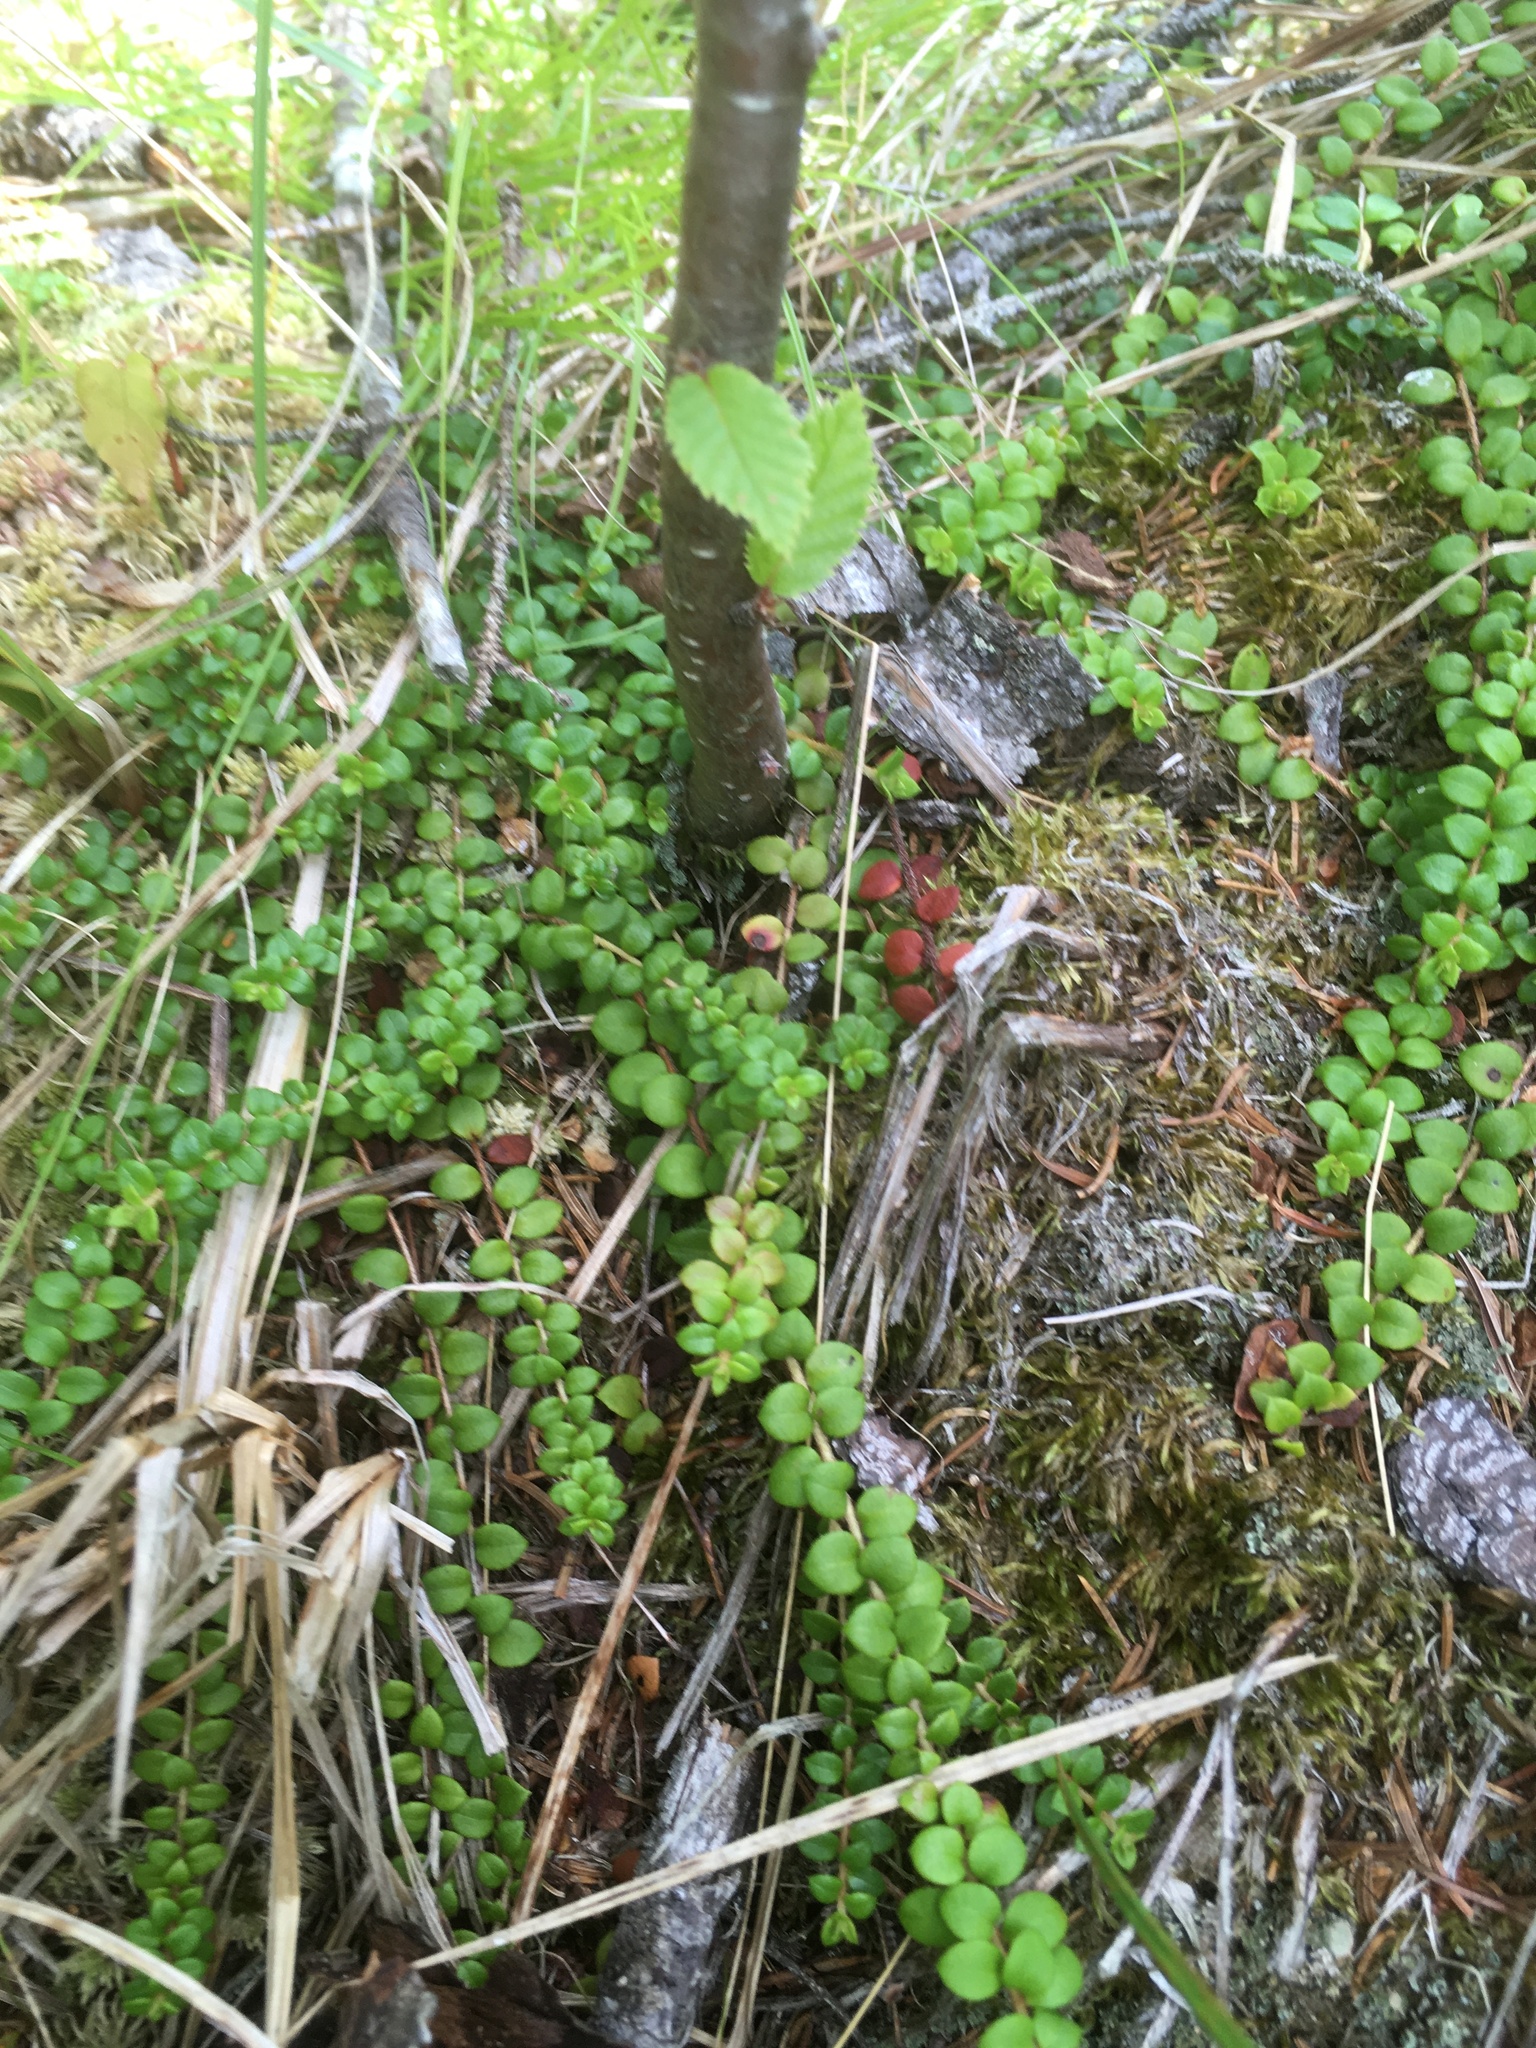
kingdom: Plantae
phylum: Tracheophyta
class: Magnoliopsida
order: Ericales
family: Ericaceae
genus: Gaultheria
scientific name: Gaultheria hispidula
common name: Cancer wintergreen
